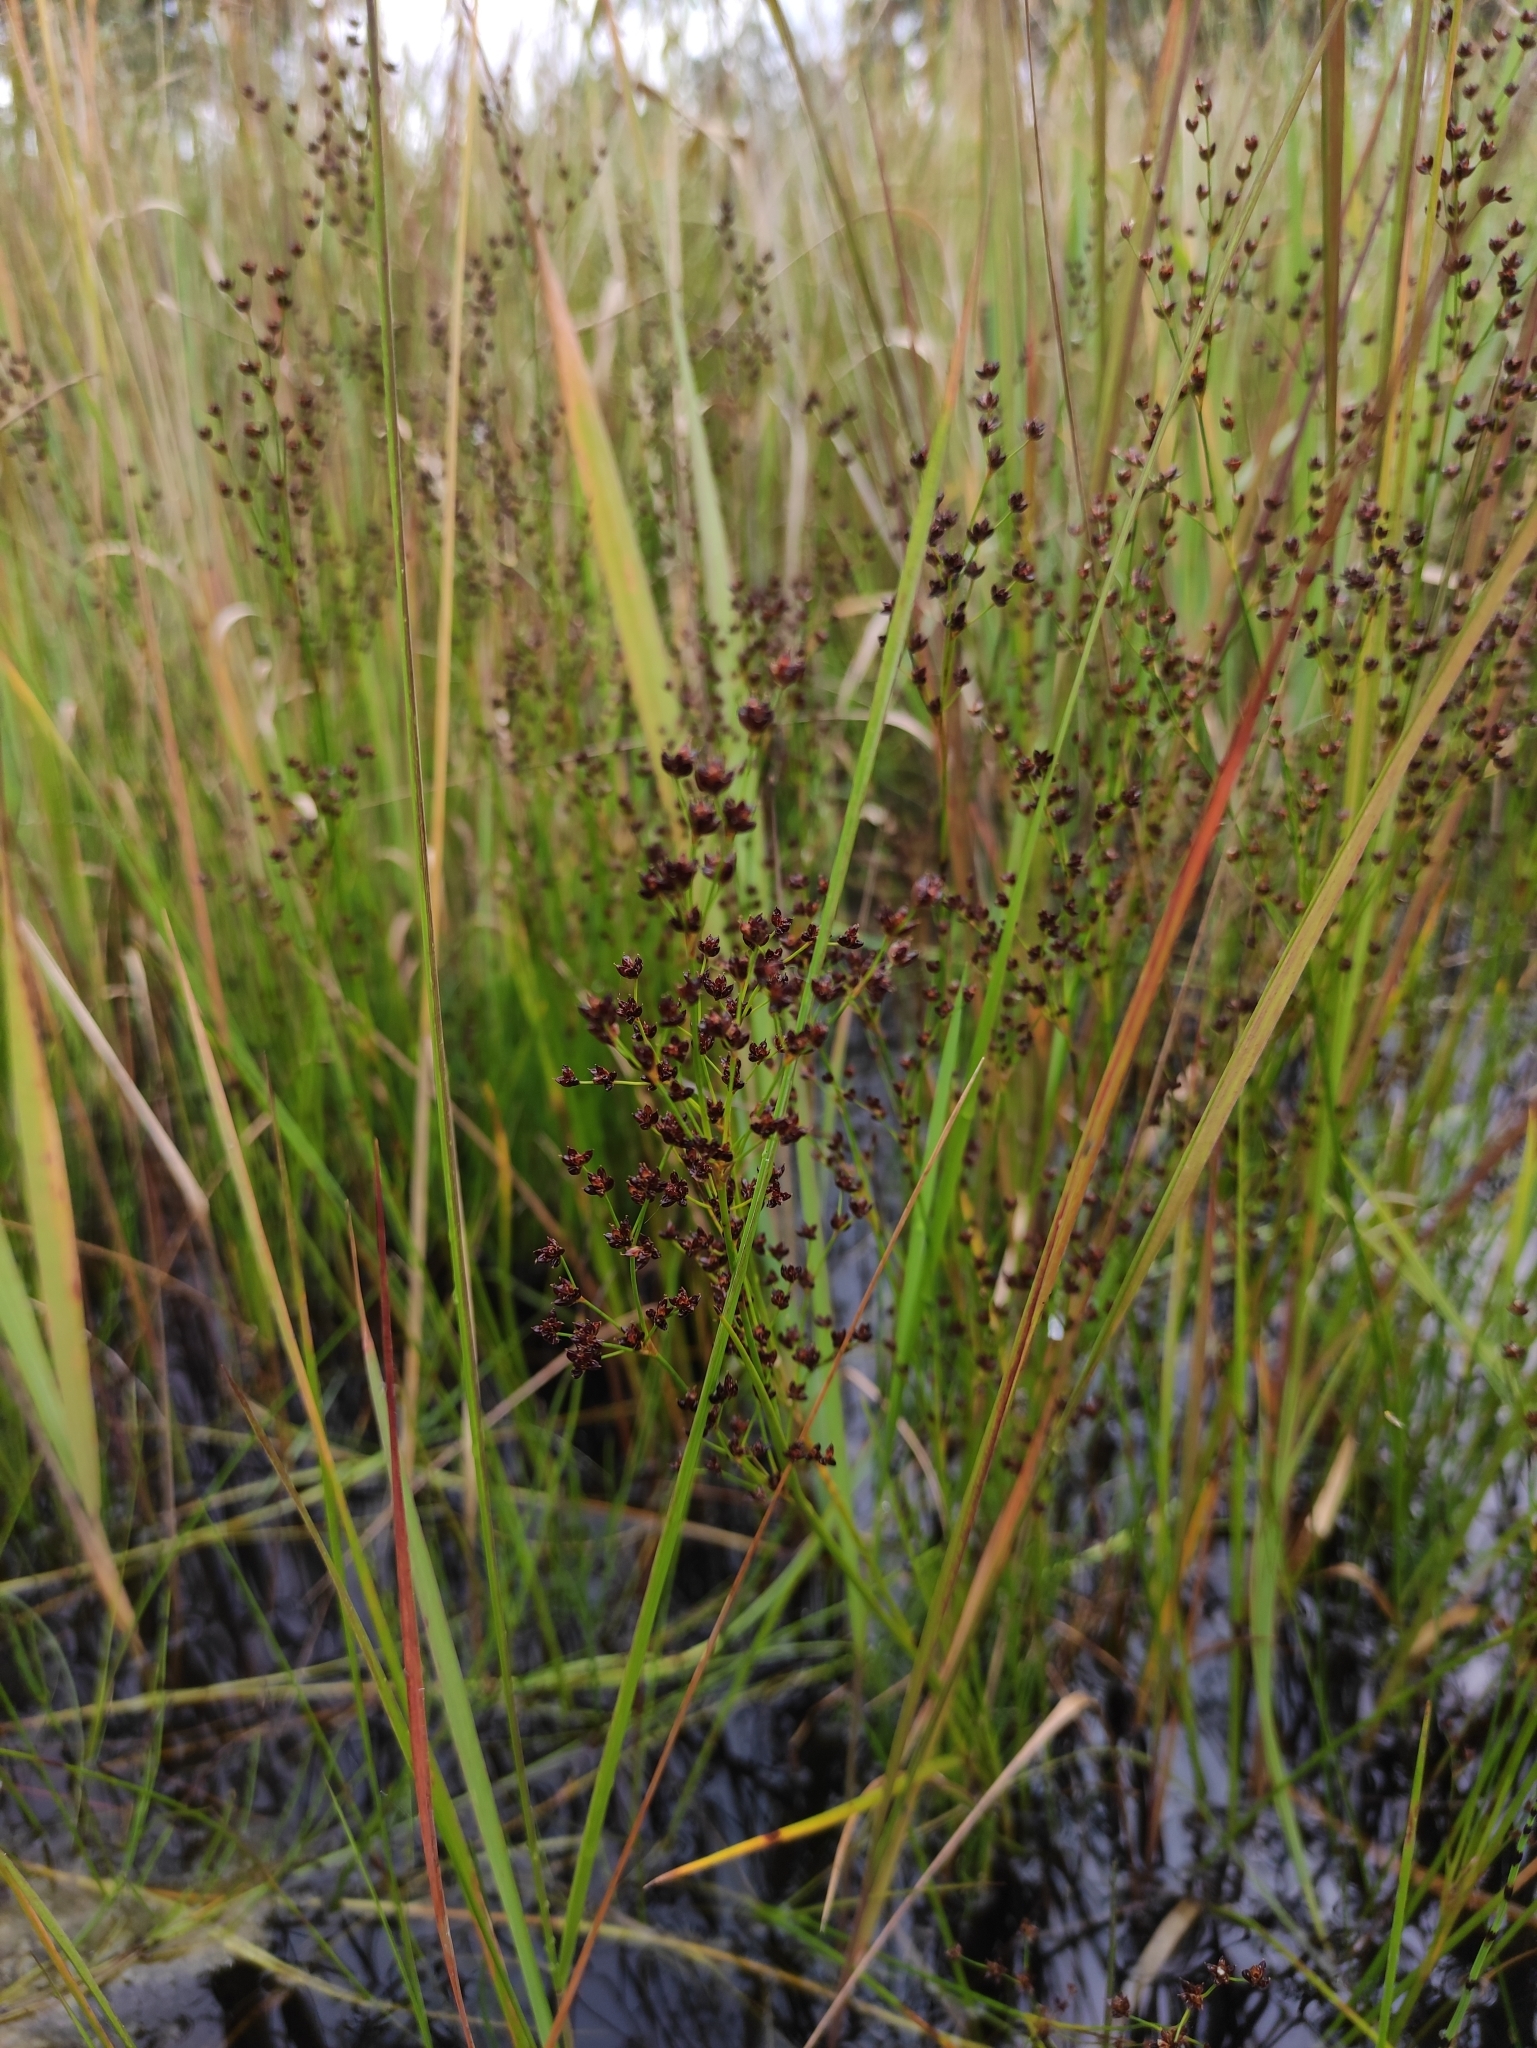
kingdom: Plantae
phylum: Tracheophyta
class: Liliopsida
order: Poales
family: Juncaceae
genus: Juncus
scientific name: Juncus alpinoarticulatus
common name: Alpine rush
